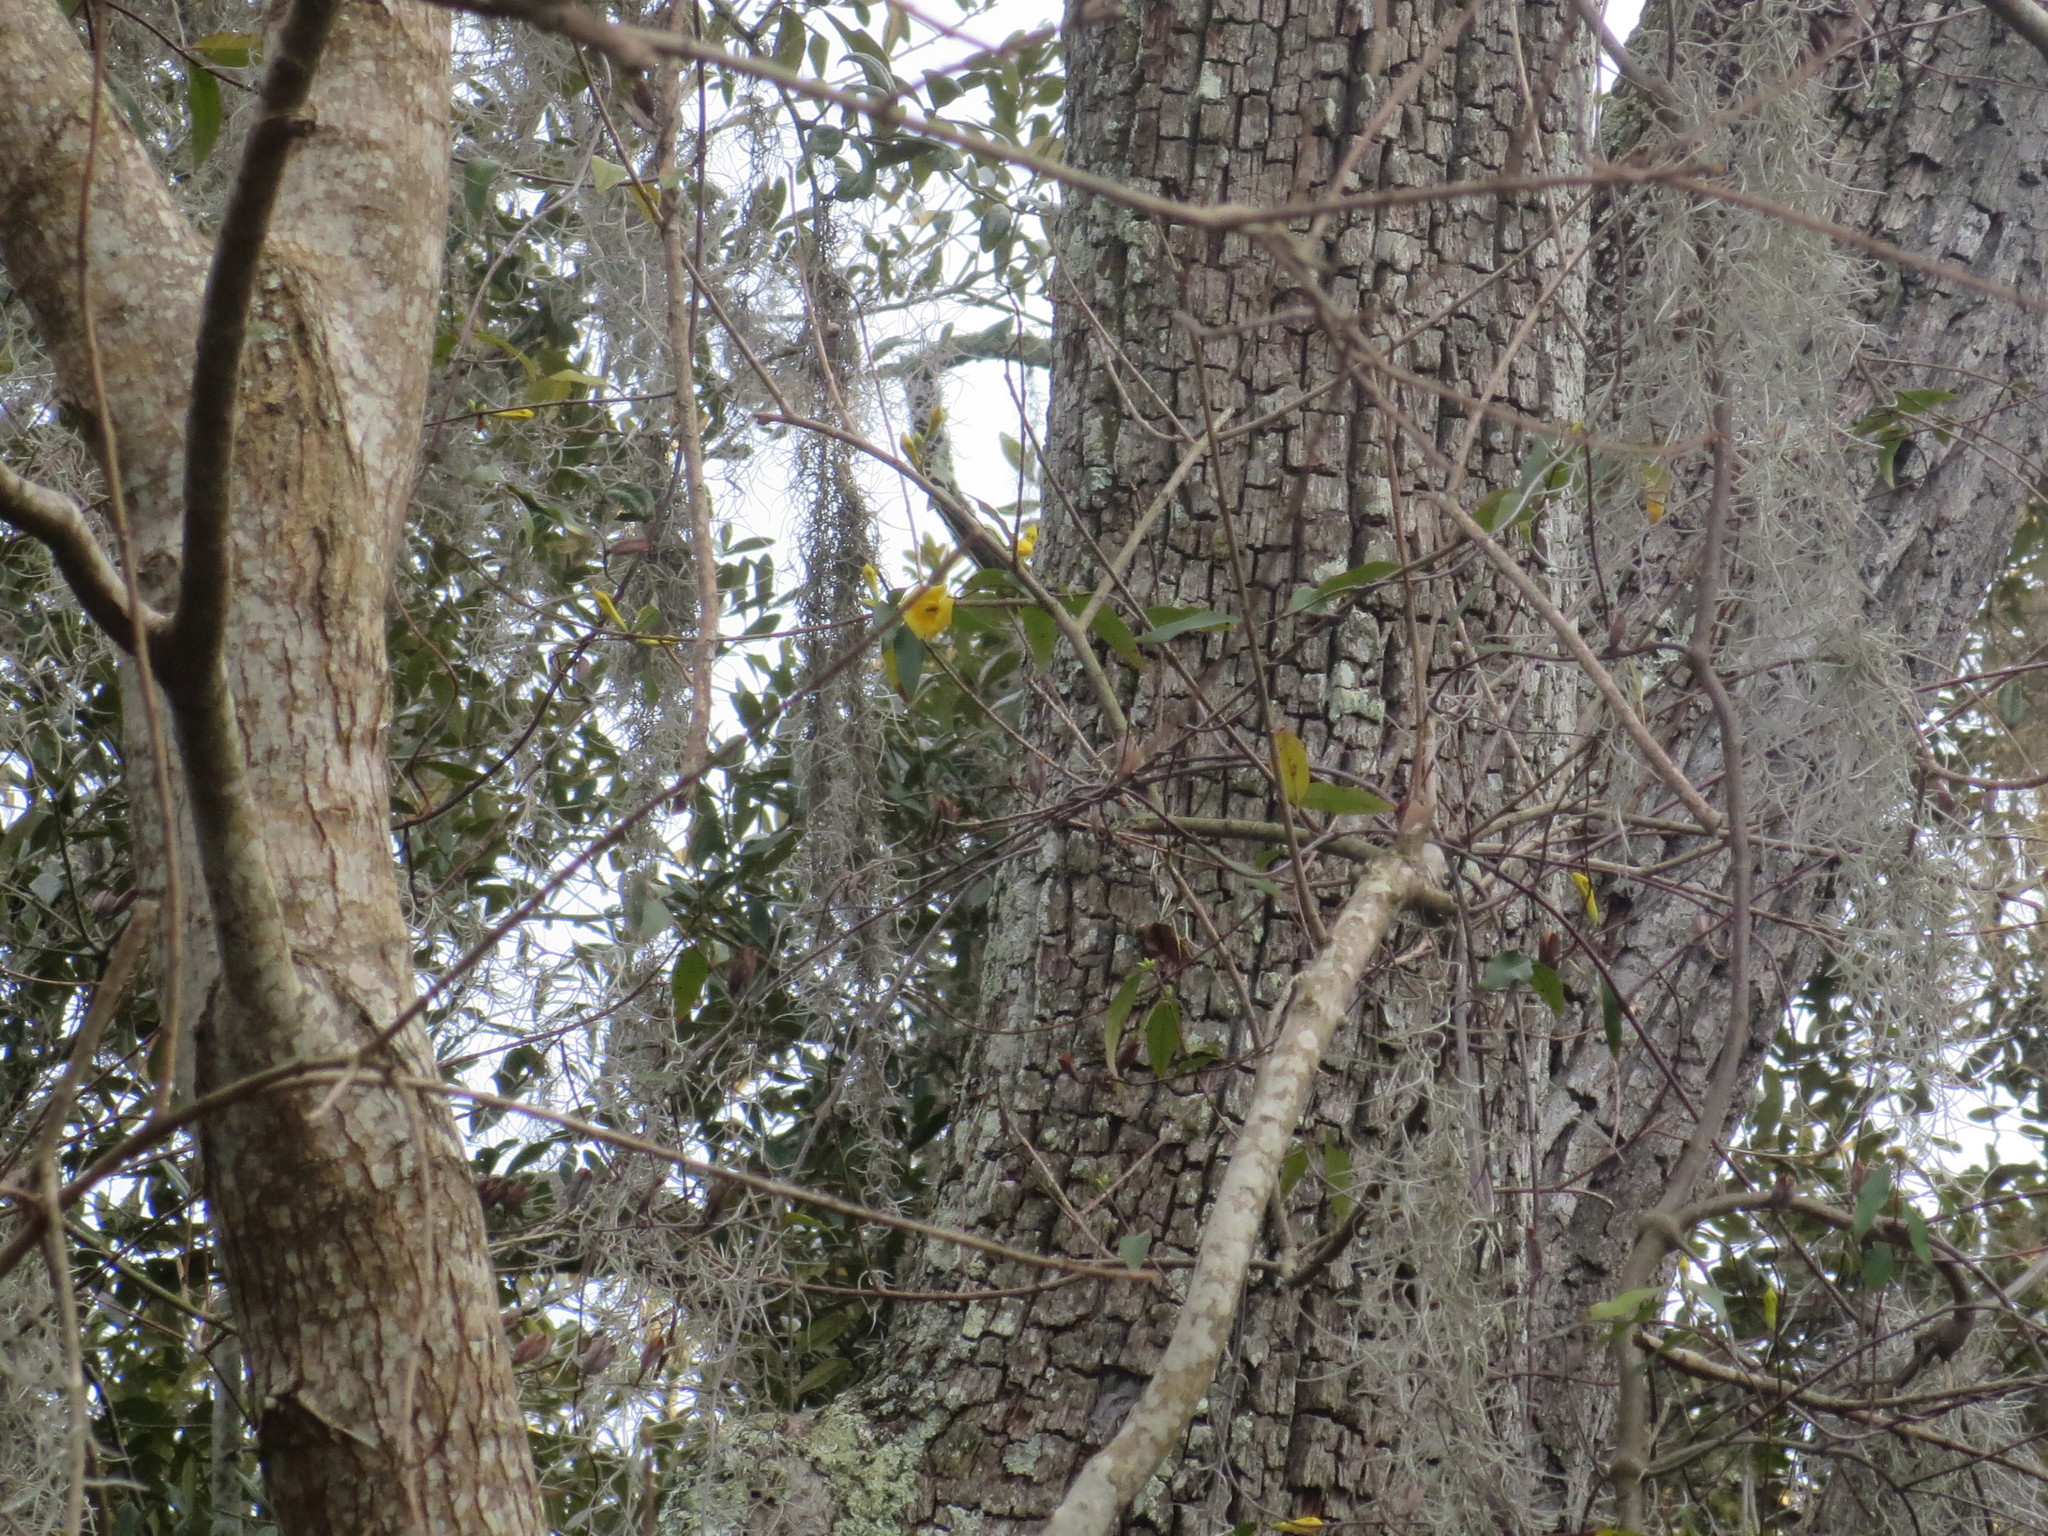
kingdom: Plantae
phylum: Tracheophyta
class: Magnoliopsida
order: Gentianales
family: Gelsemiaceae
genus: Gelsemium
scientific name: Gelsemium sempervirens
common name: Carolina-jasmine
